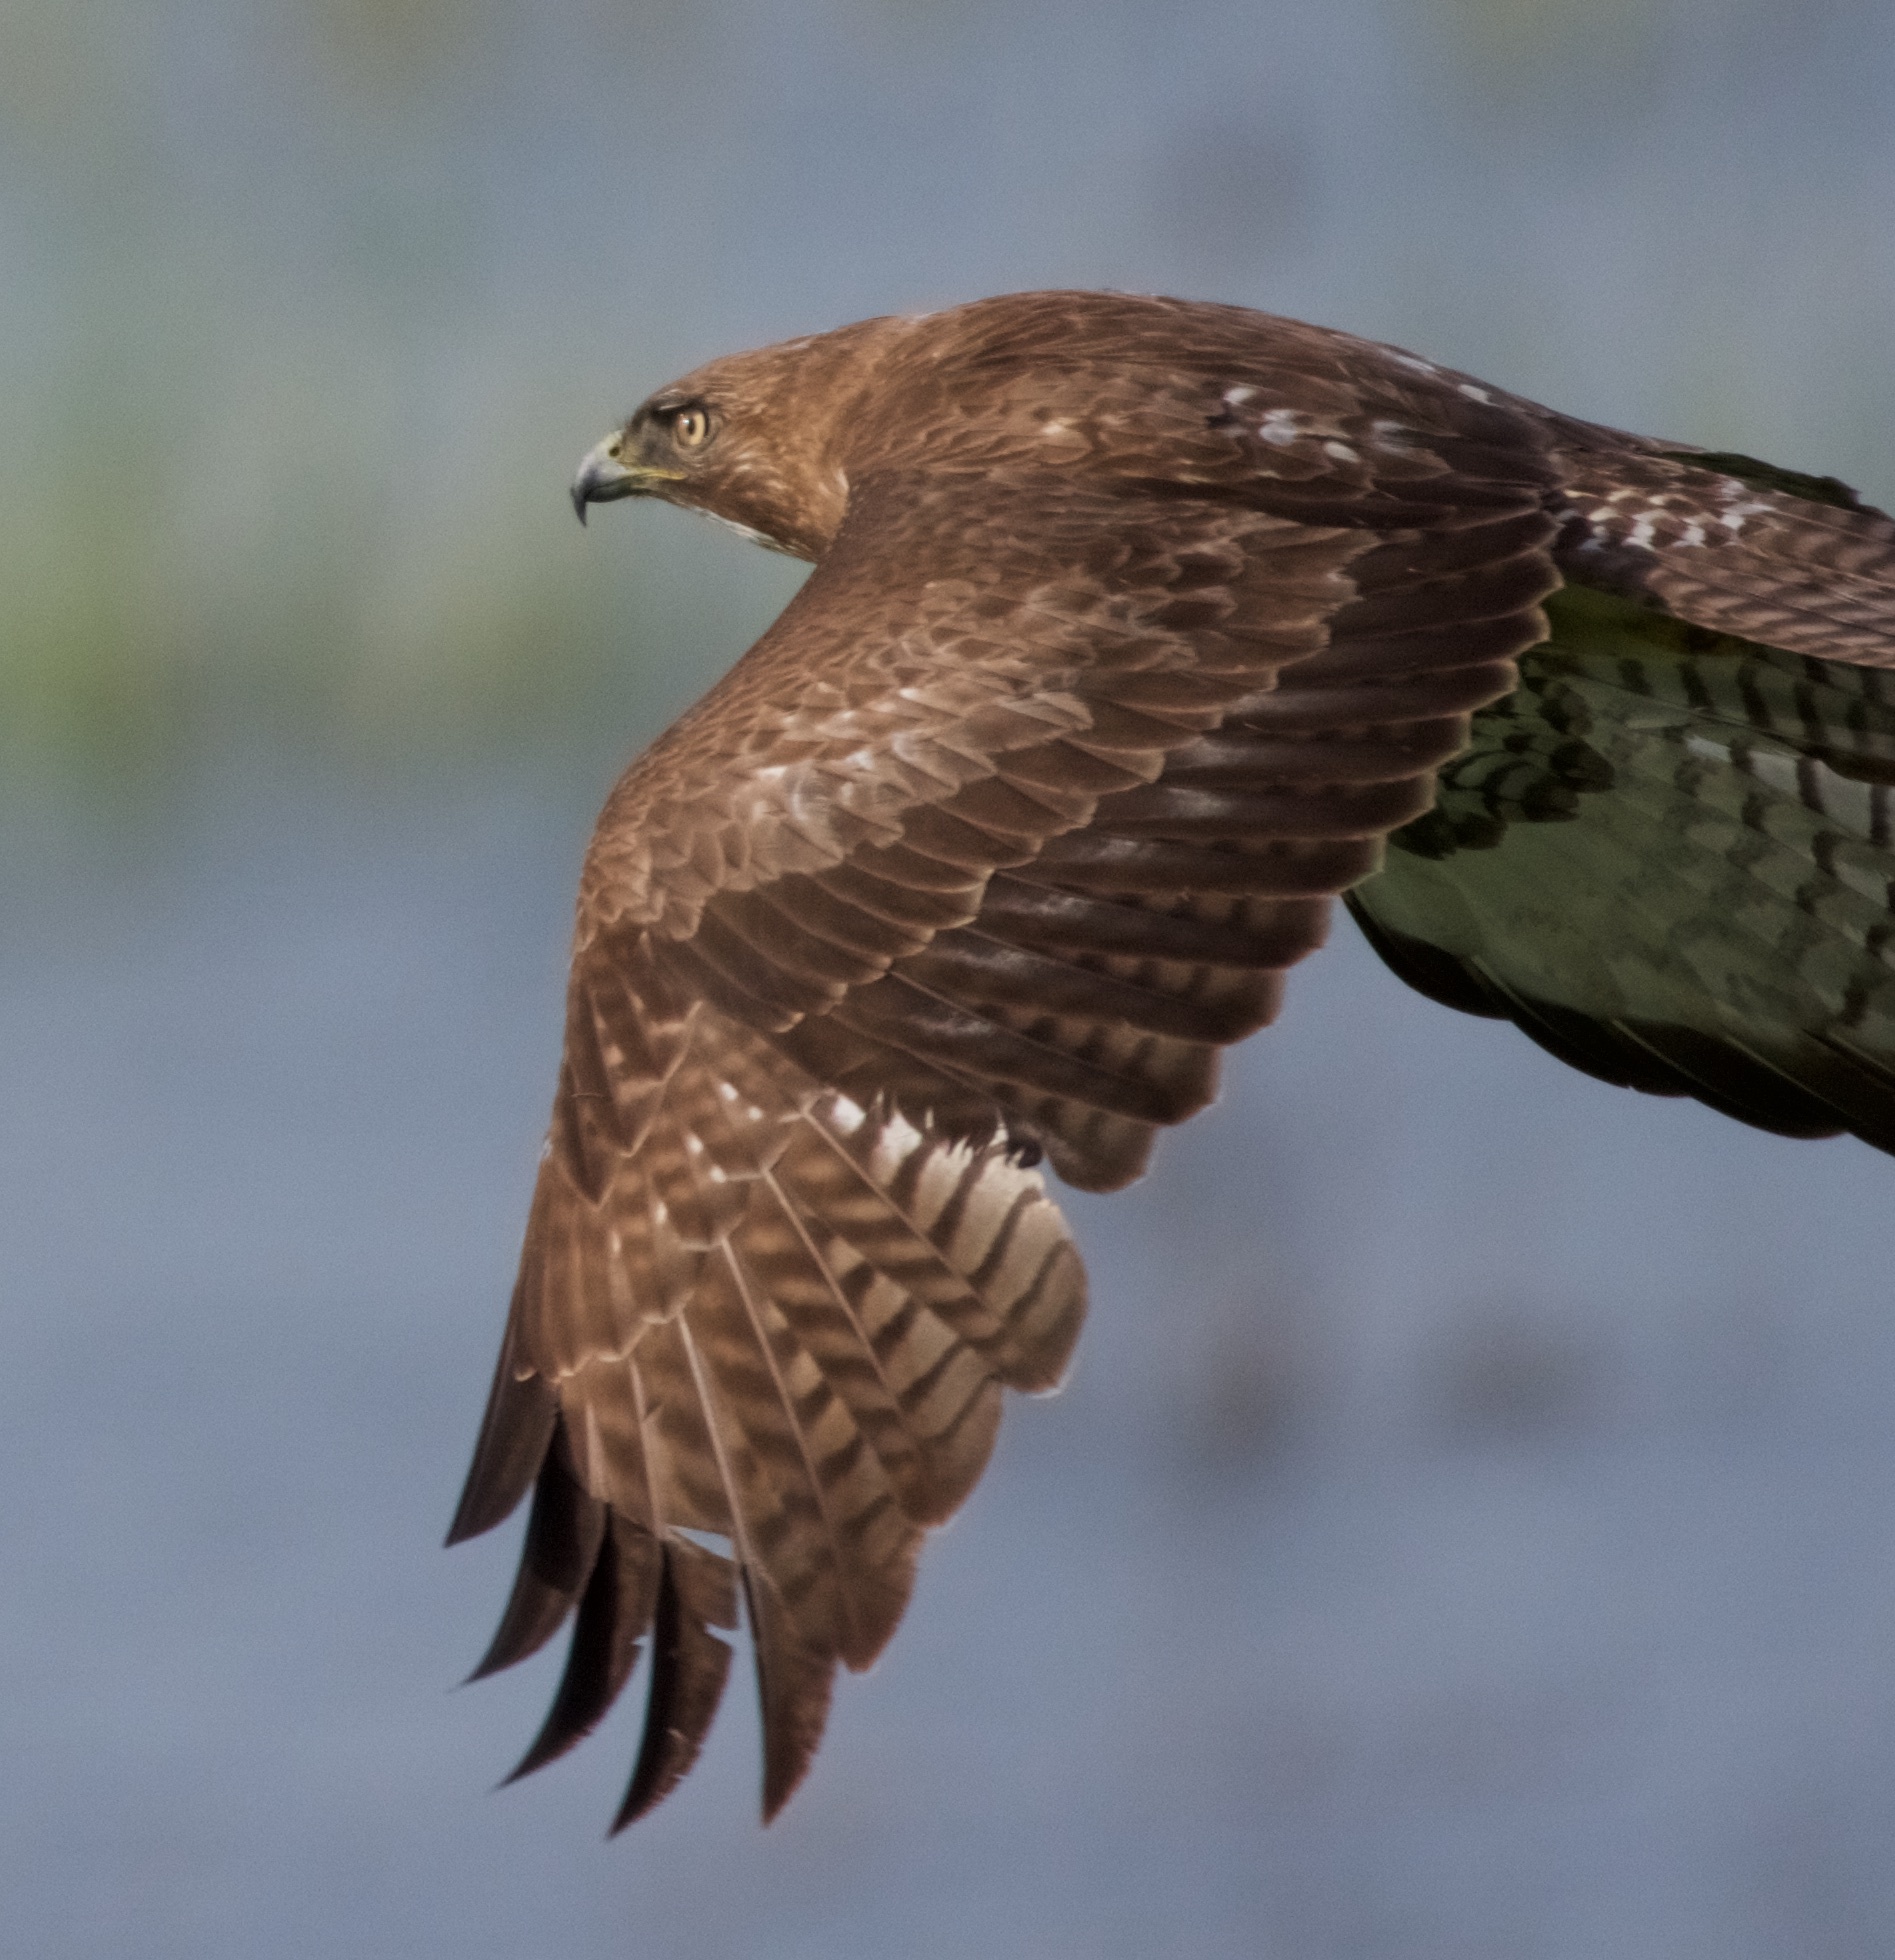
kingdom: Animalia
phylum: Chordata
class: Aves
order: Accipitriformes
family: Accipitridae
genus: Buteo
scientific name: Buteo jamaicensis
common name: Red-tailed hawk
